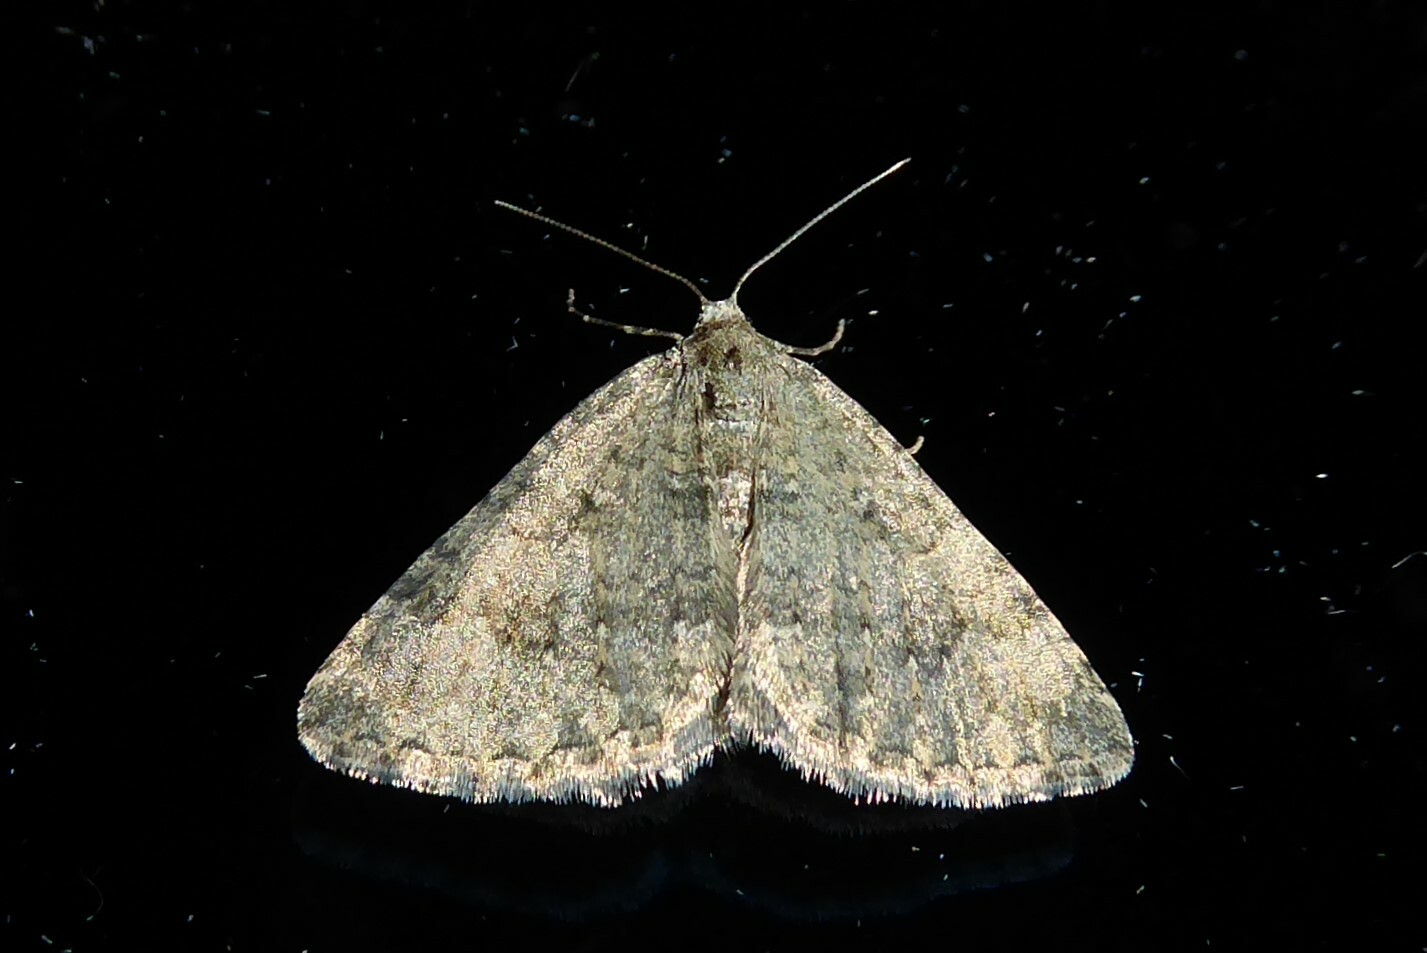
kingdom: Animalia
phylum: Arthropoda
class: Insecta
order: Lepidoptera
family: Geometridae
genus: Helastia
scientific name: Helastia corcularia
